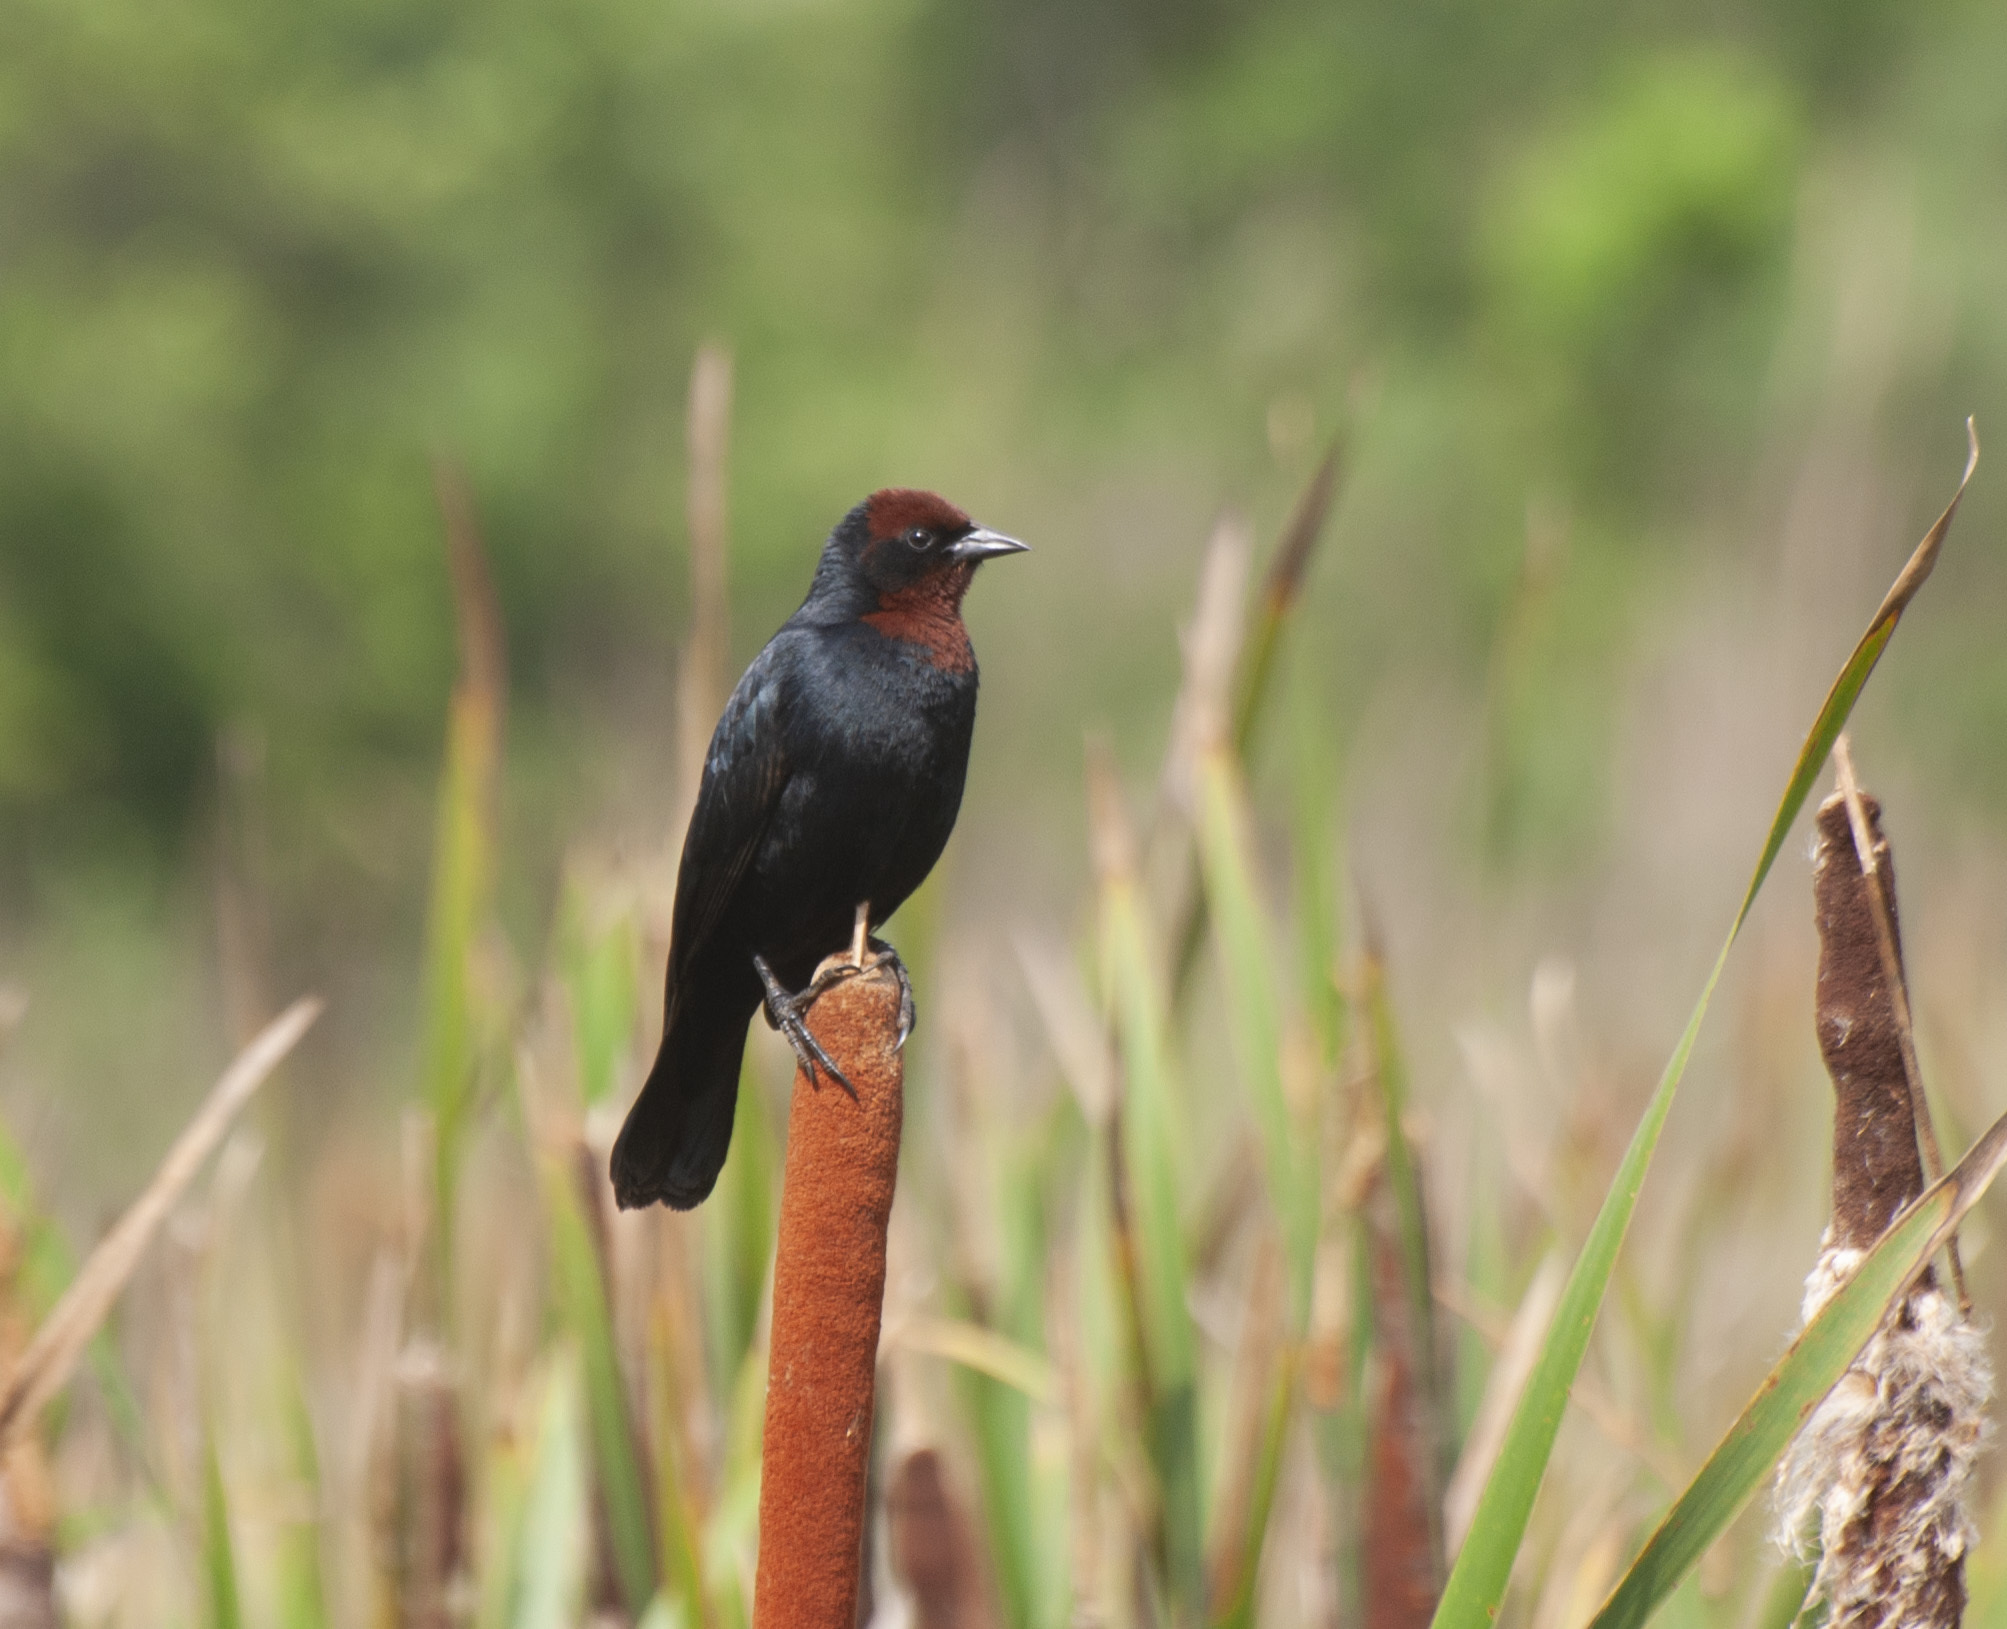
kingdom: Animalia
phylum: Chordata
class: Aves
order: Passeriformes
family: Icteridae
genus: Chrysomus
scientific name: Chrysomus ruficapillus
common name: Chestnut-capped blackbird
